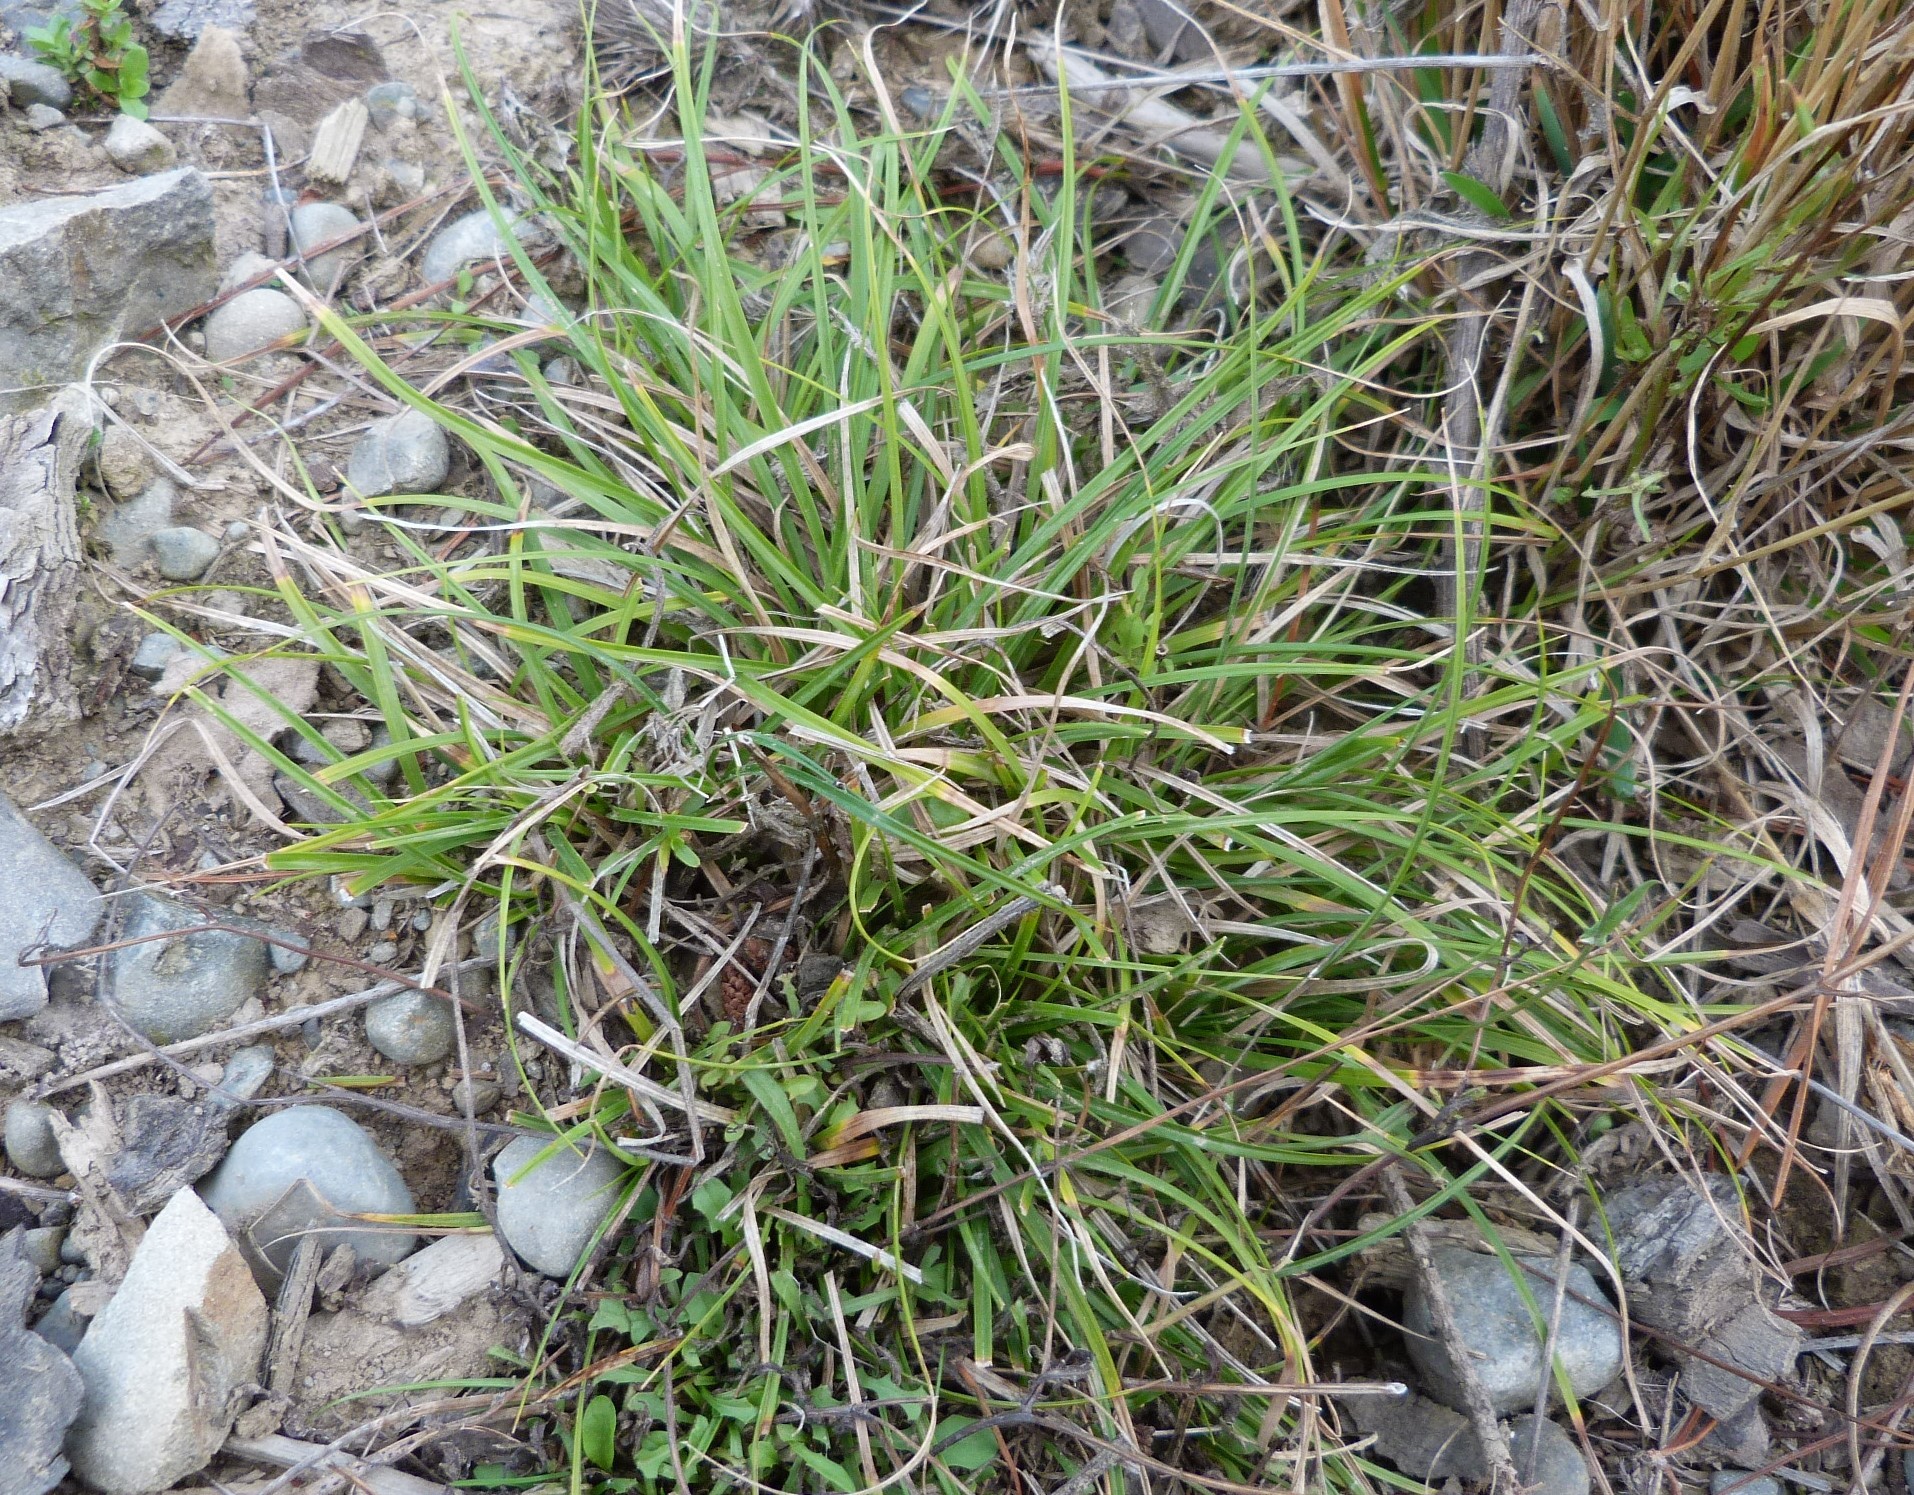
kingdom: Plantae
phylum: Tracheophyta
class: Liliopsida
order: Poales
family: Cyperaceae
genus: Carex
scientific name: Carex breviculmis
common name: Asian shortstem sedge
